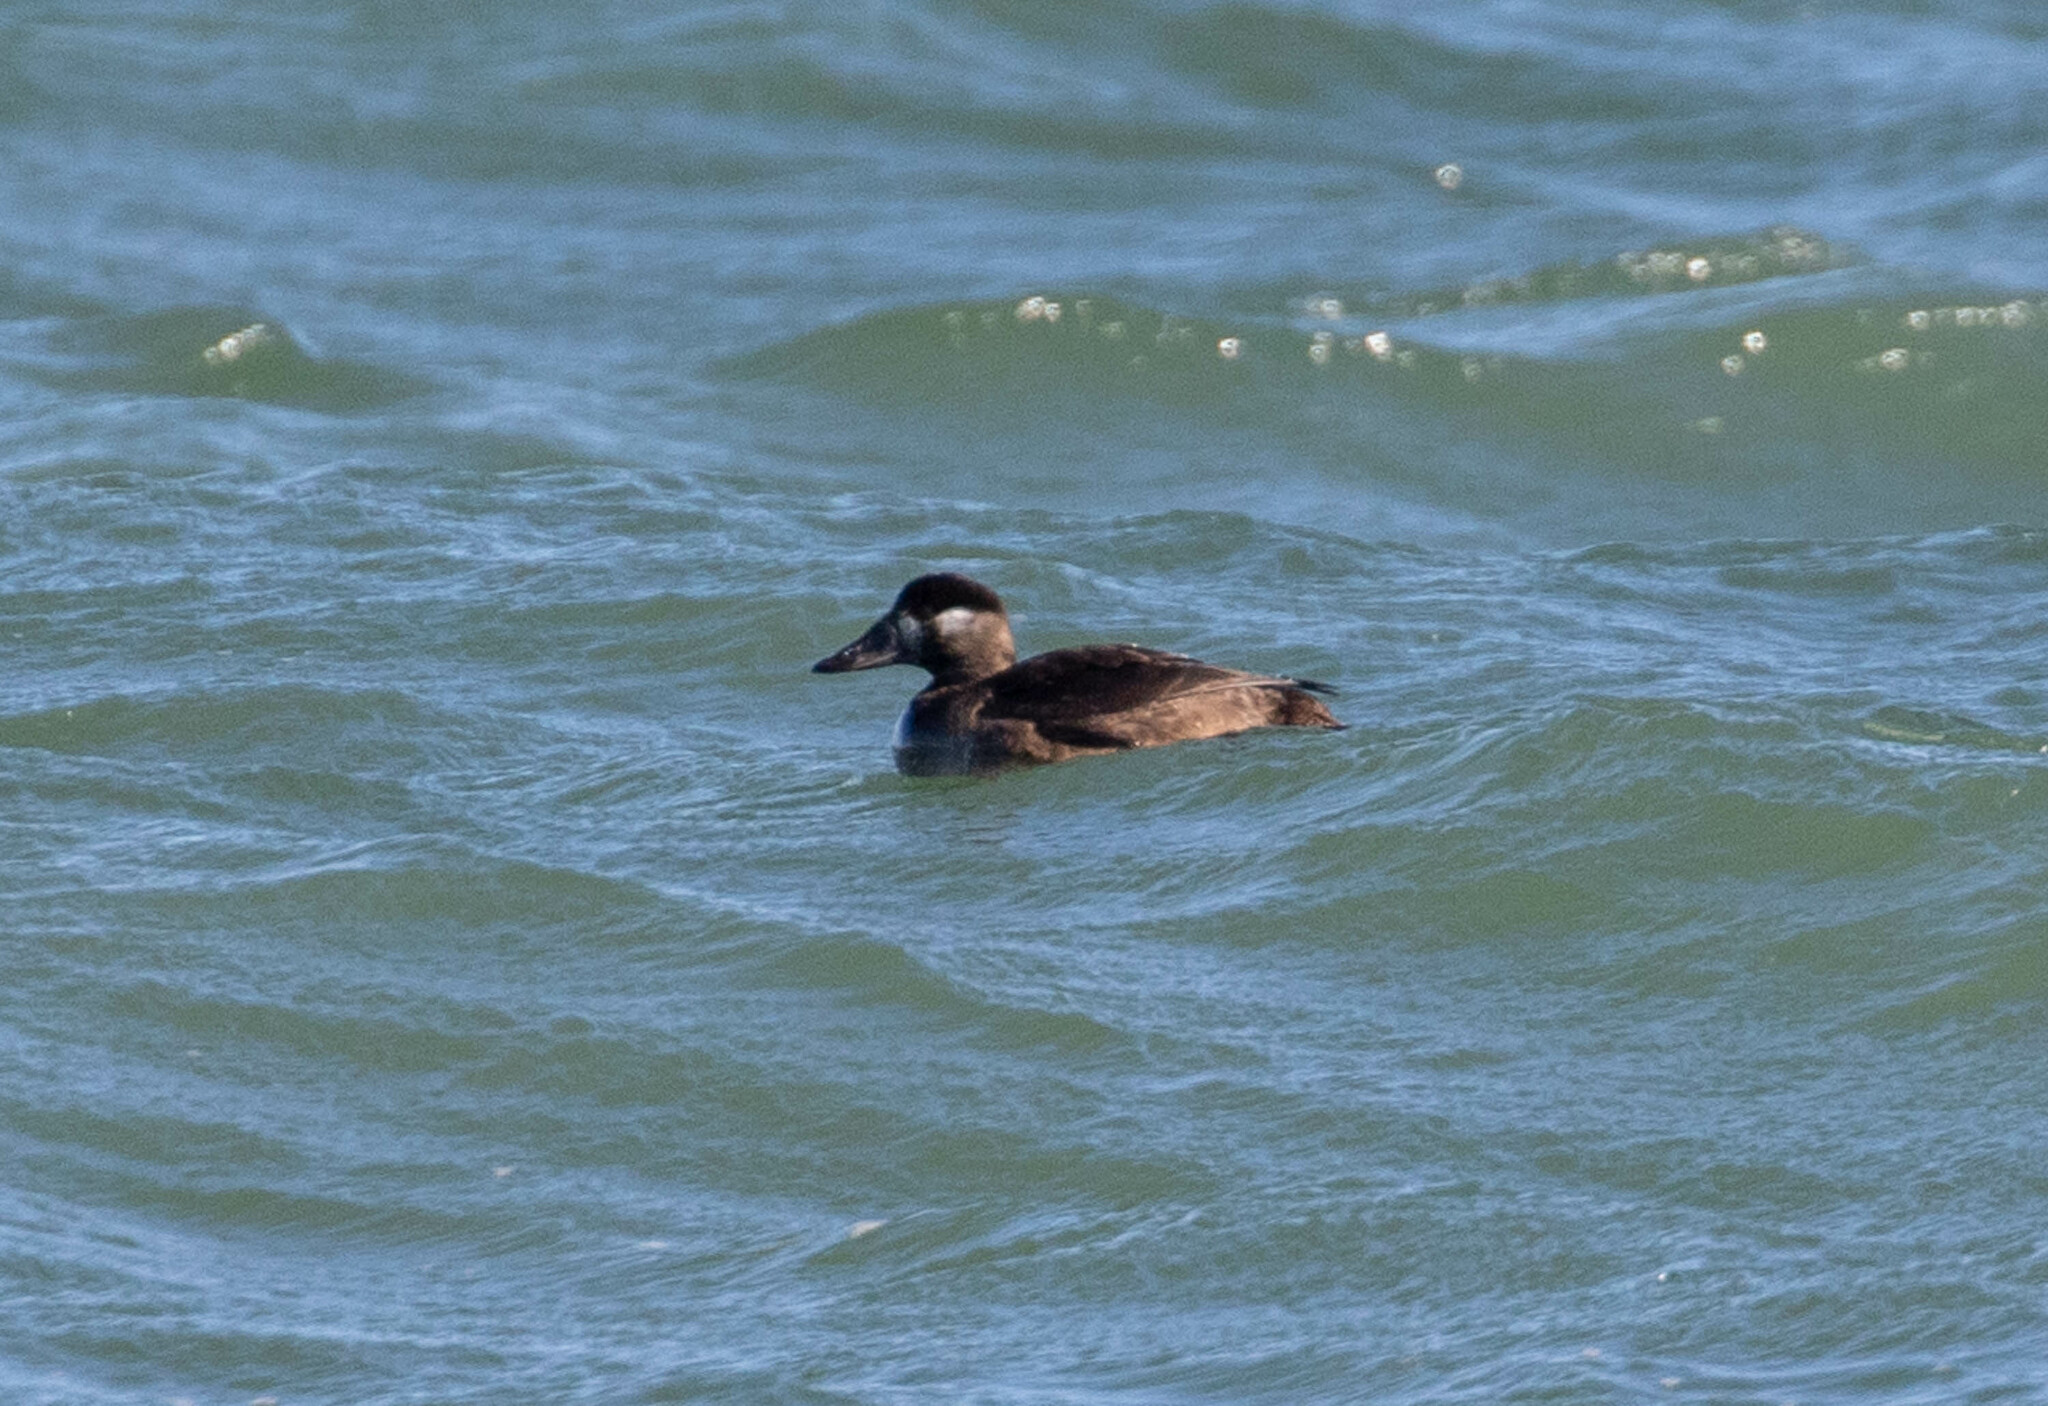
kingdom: Animalia
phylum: Chordata
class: Aves
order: Anseriformes
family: Anatidae
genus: Melanitta
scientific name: Melanitta perspicillata
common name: Surf scoter
